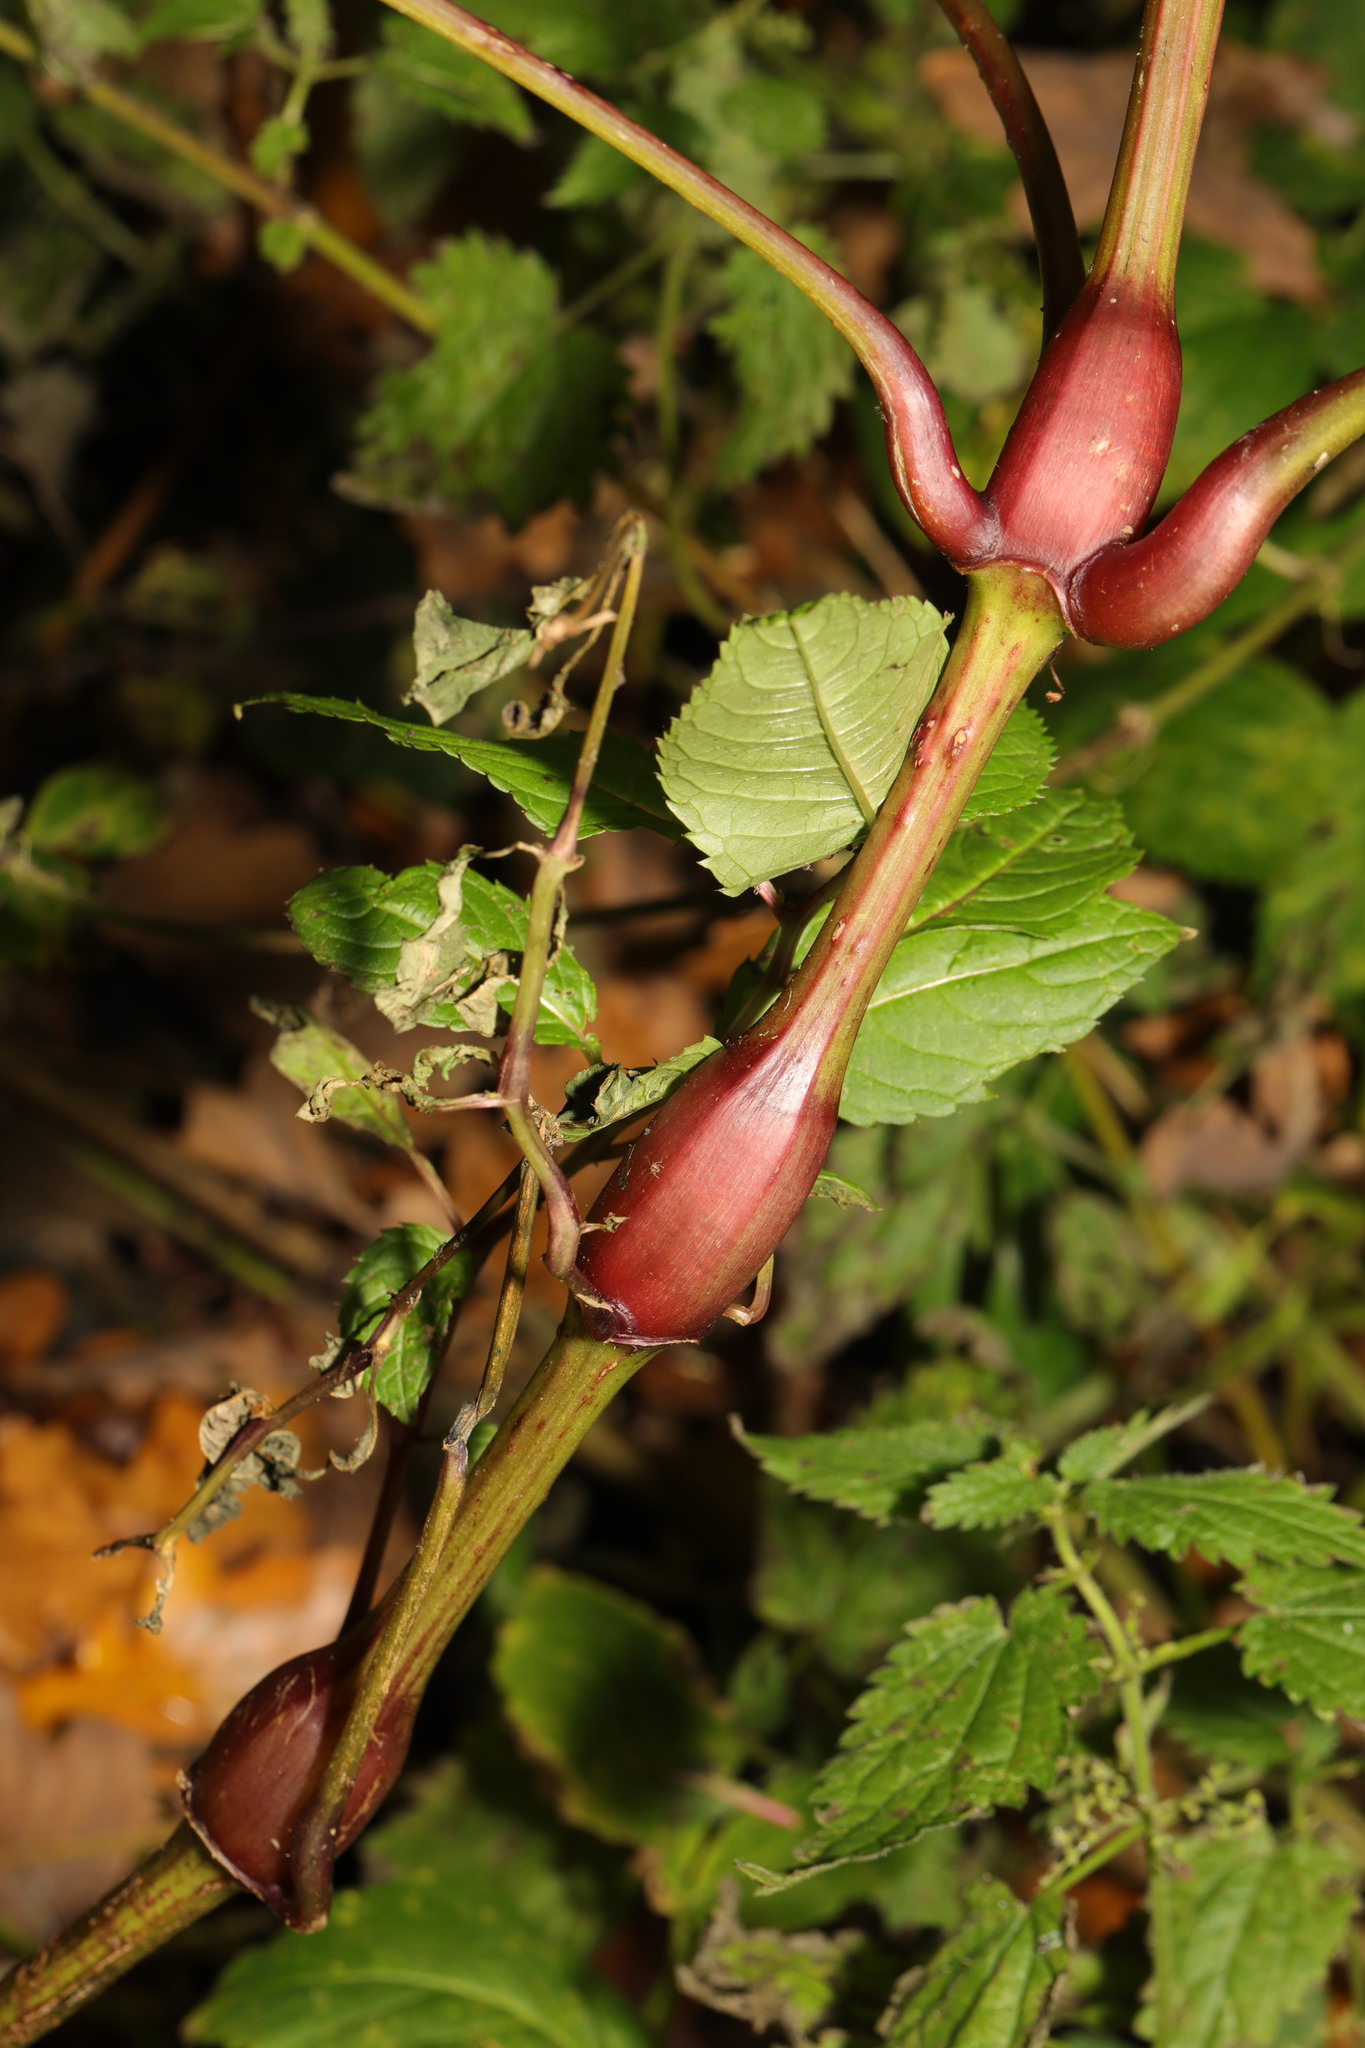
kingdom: Plantae
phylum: Tracheophyta
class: Magnoliopsida
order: Ericales
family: Balsaminaceae
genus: Impatiens
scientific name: Impatiens glandulifera
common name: Himalayan balsam
